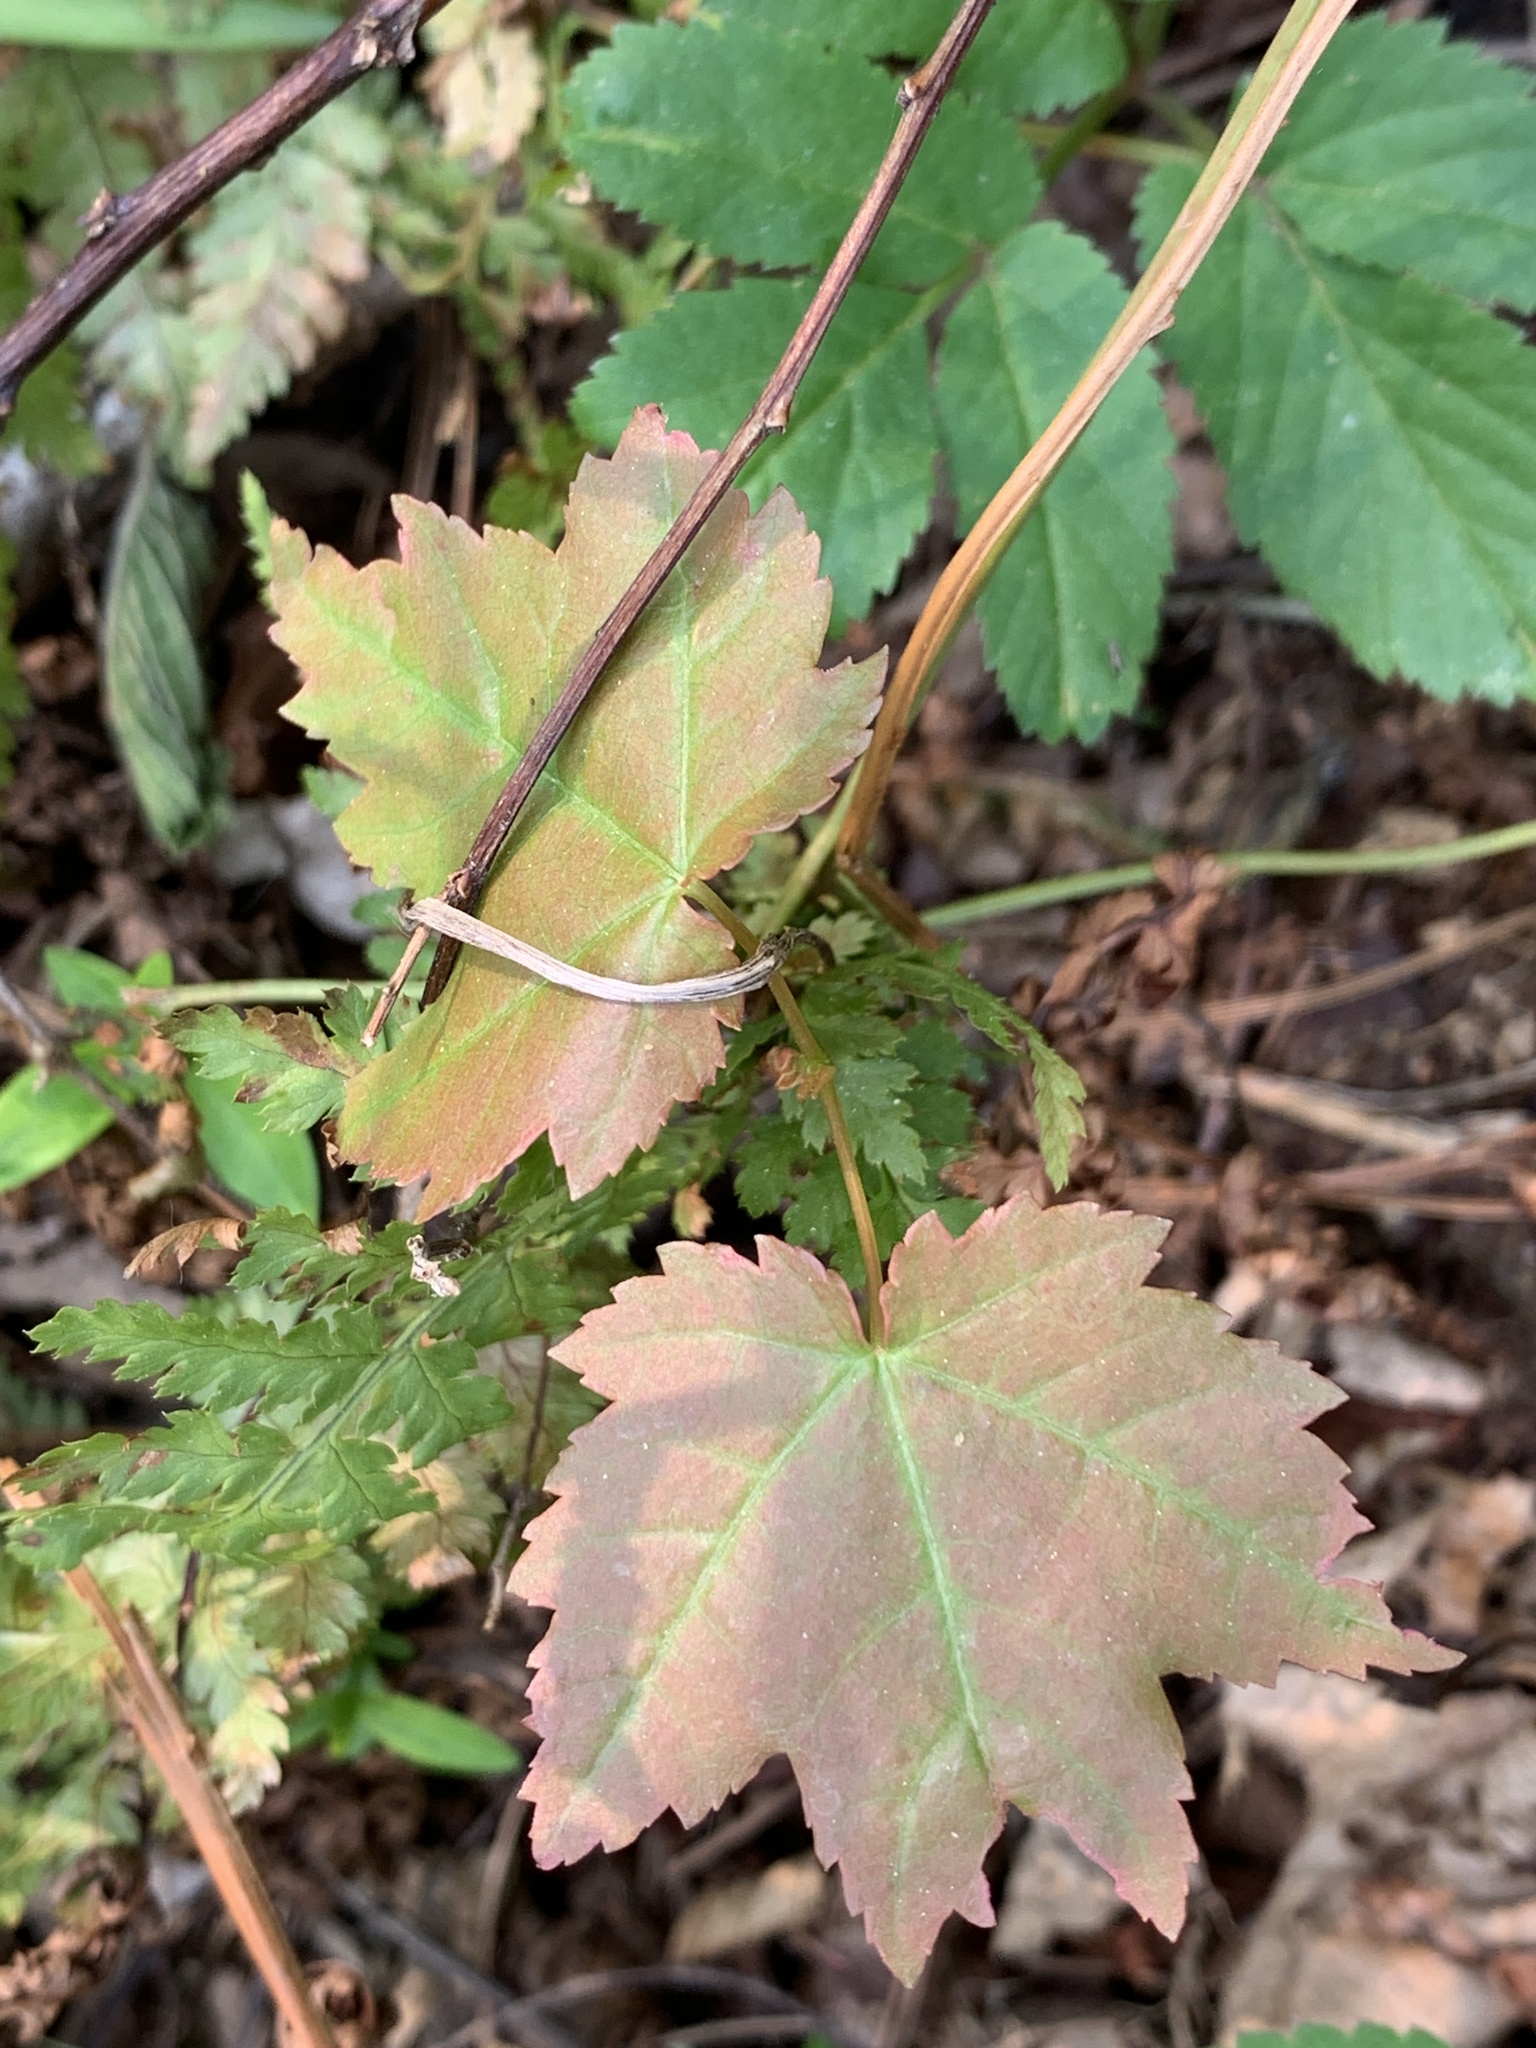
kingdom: Plantae
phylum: Tracheophyta
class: Magnoliopsida
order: Sapindales
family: Sapindaceae
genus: Acer
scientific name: Acer rubrum
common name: Red maple
